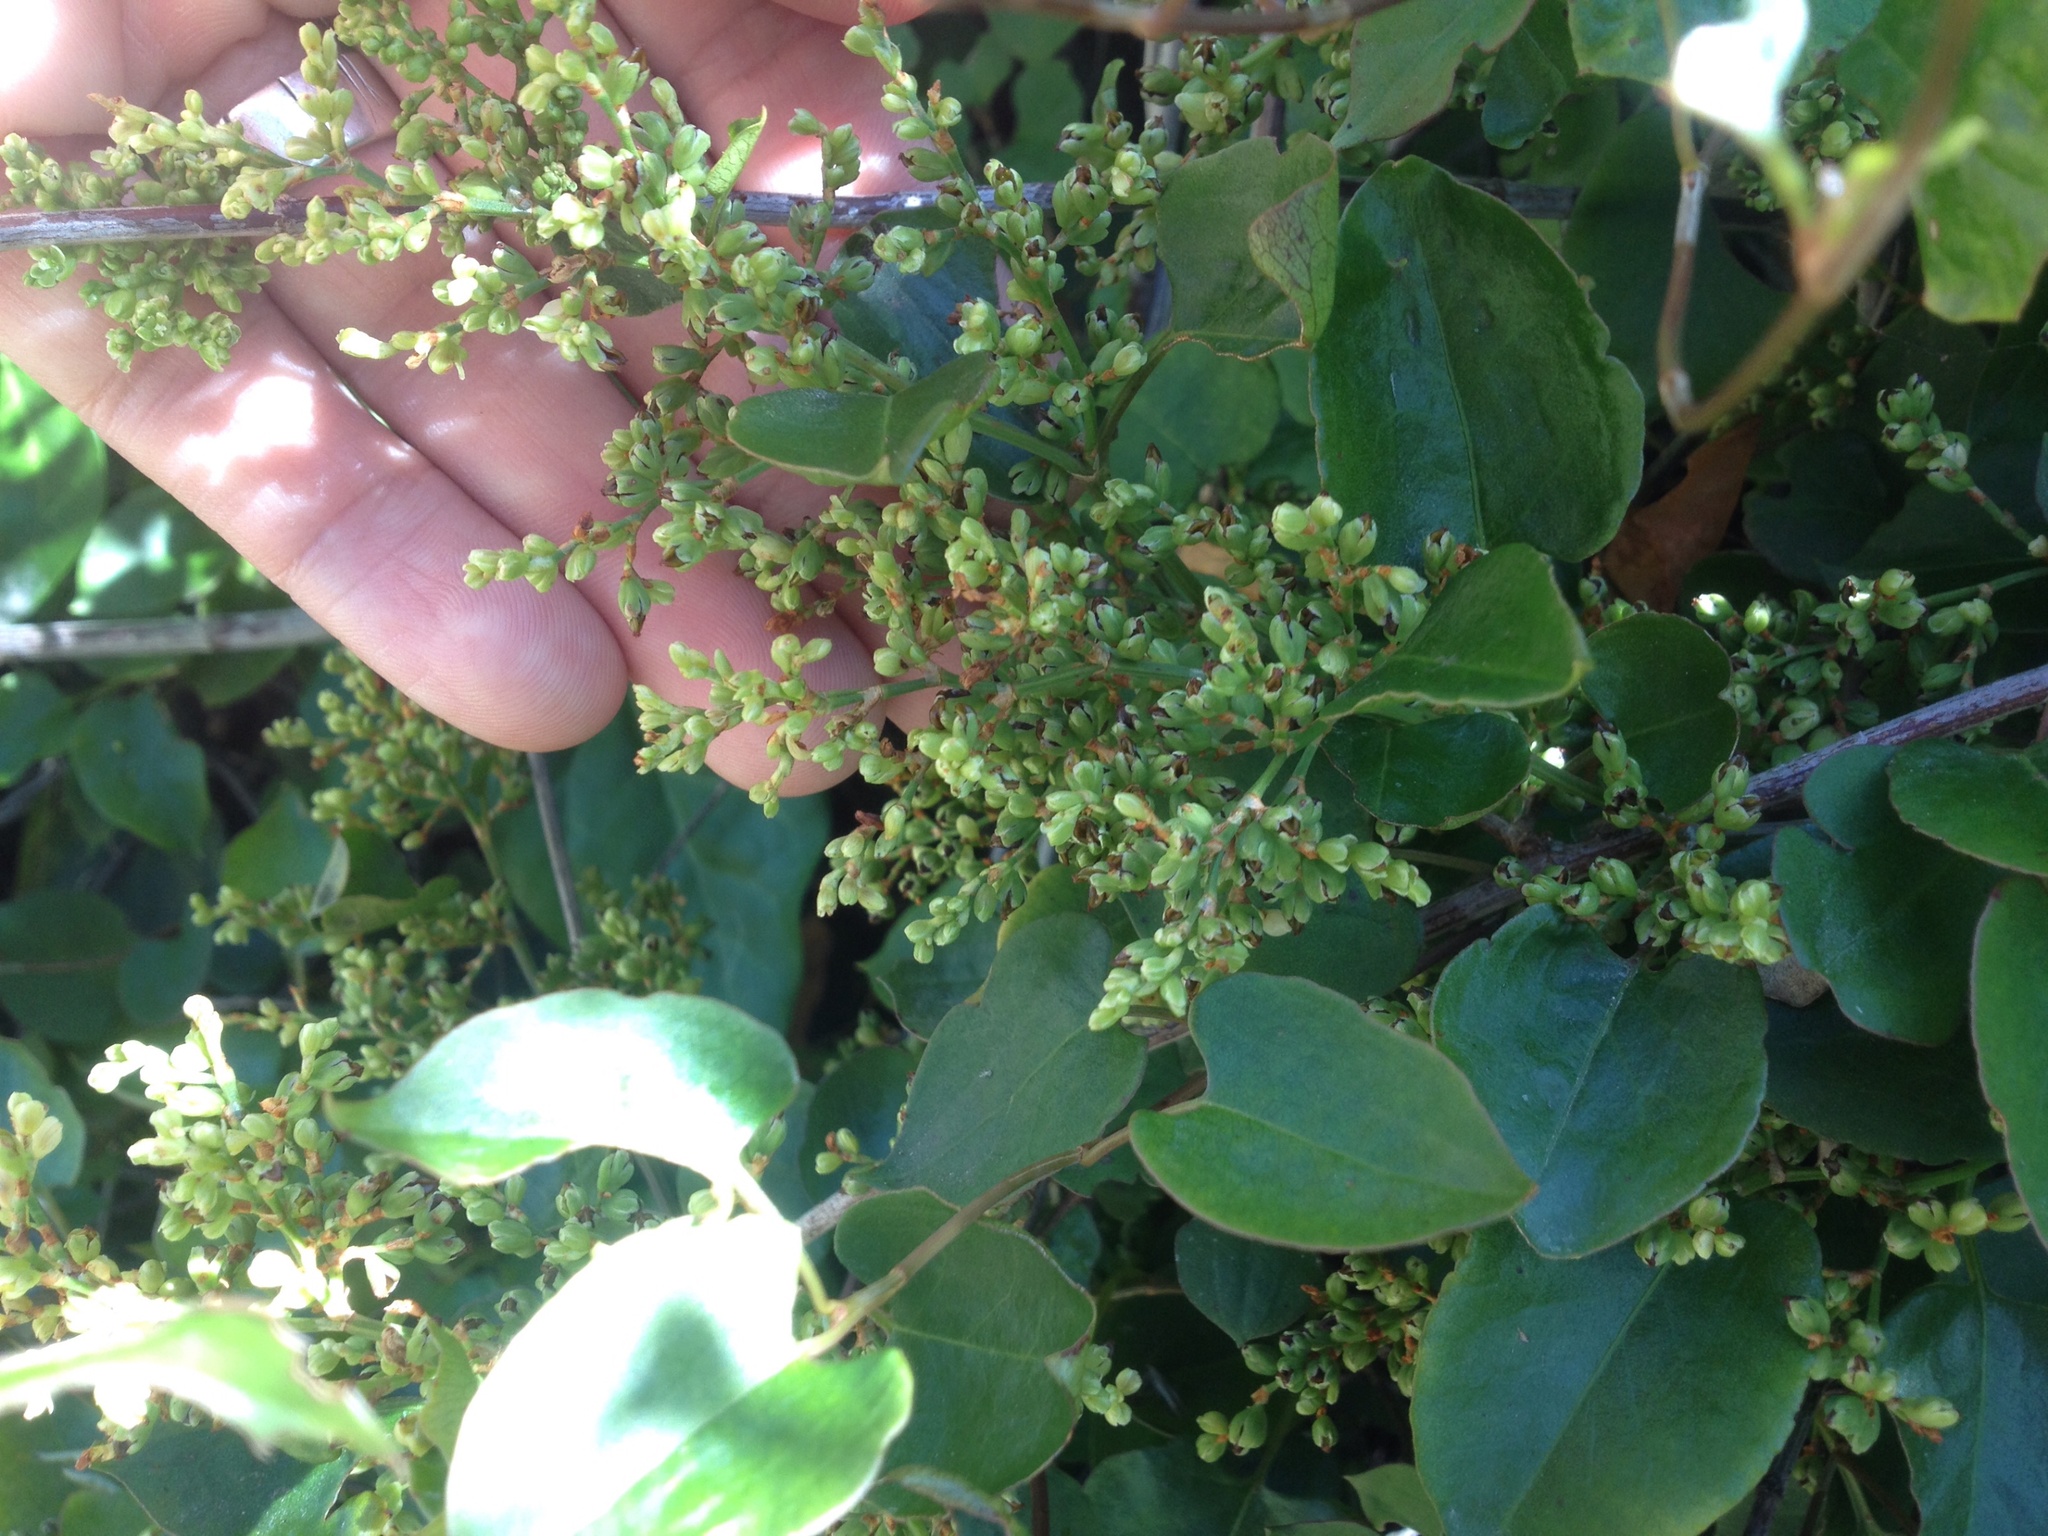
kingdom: Plantae
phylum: Tracheophyta
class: Magnoliopsida
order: Caryophyllales
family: Polygonaceae
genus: Muehlenbeckia
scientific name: Muehlenbeckia australis
